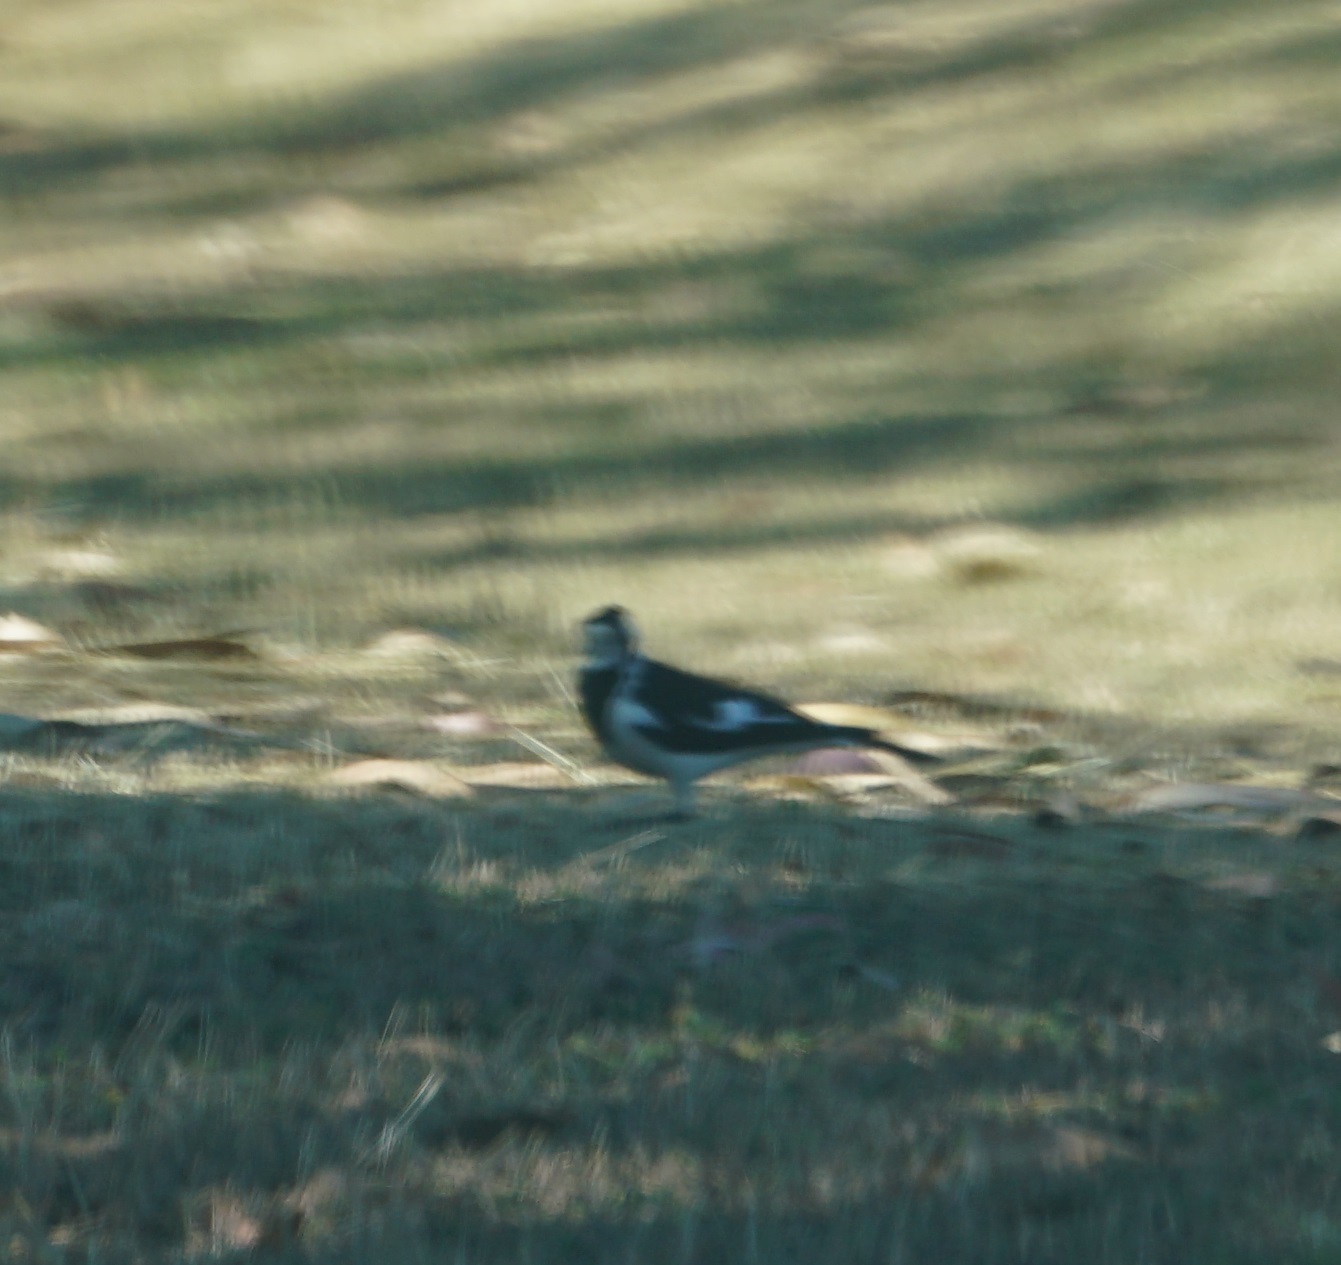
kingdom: Animalia
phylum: Chordata
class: Aves
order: Passeriformes
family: Monarchidae
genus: Grallina
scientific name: Grallina cyanoleuca
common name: Magpie-lark
